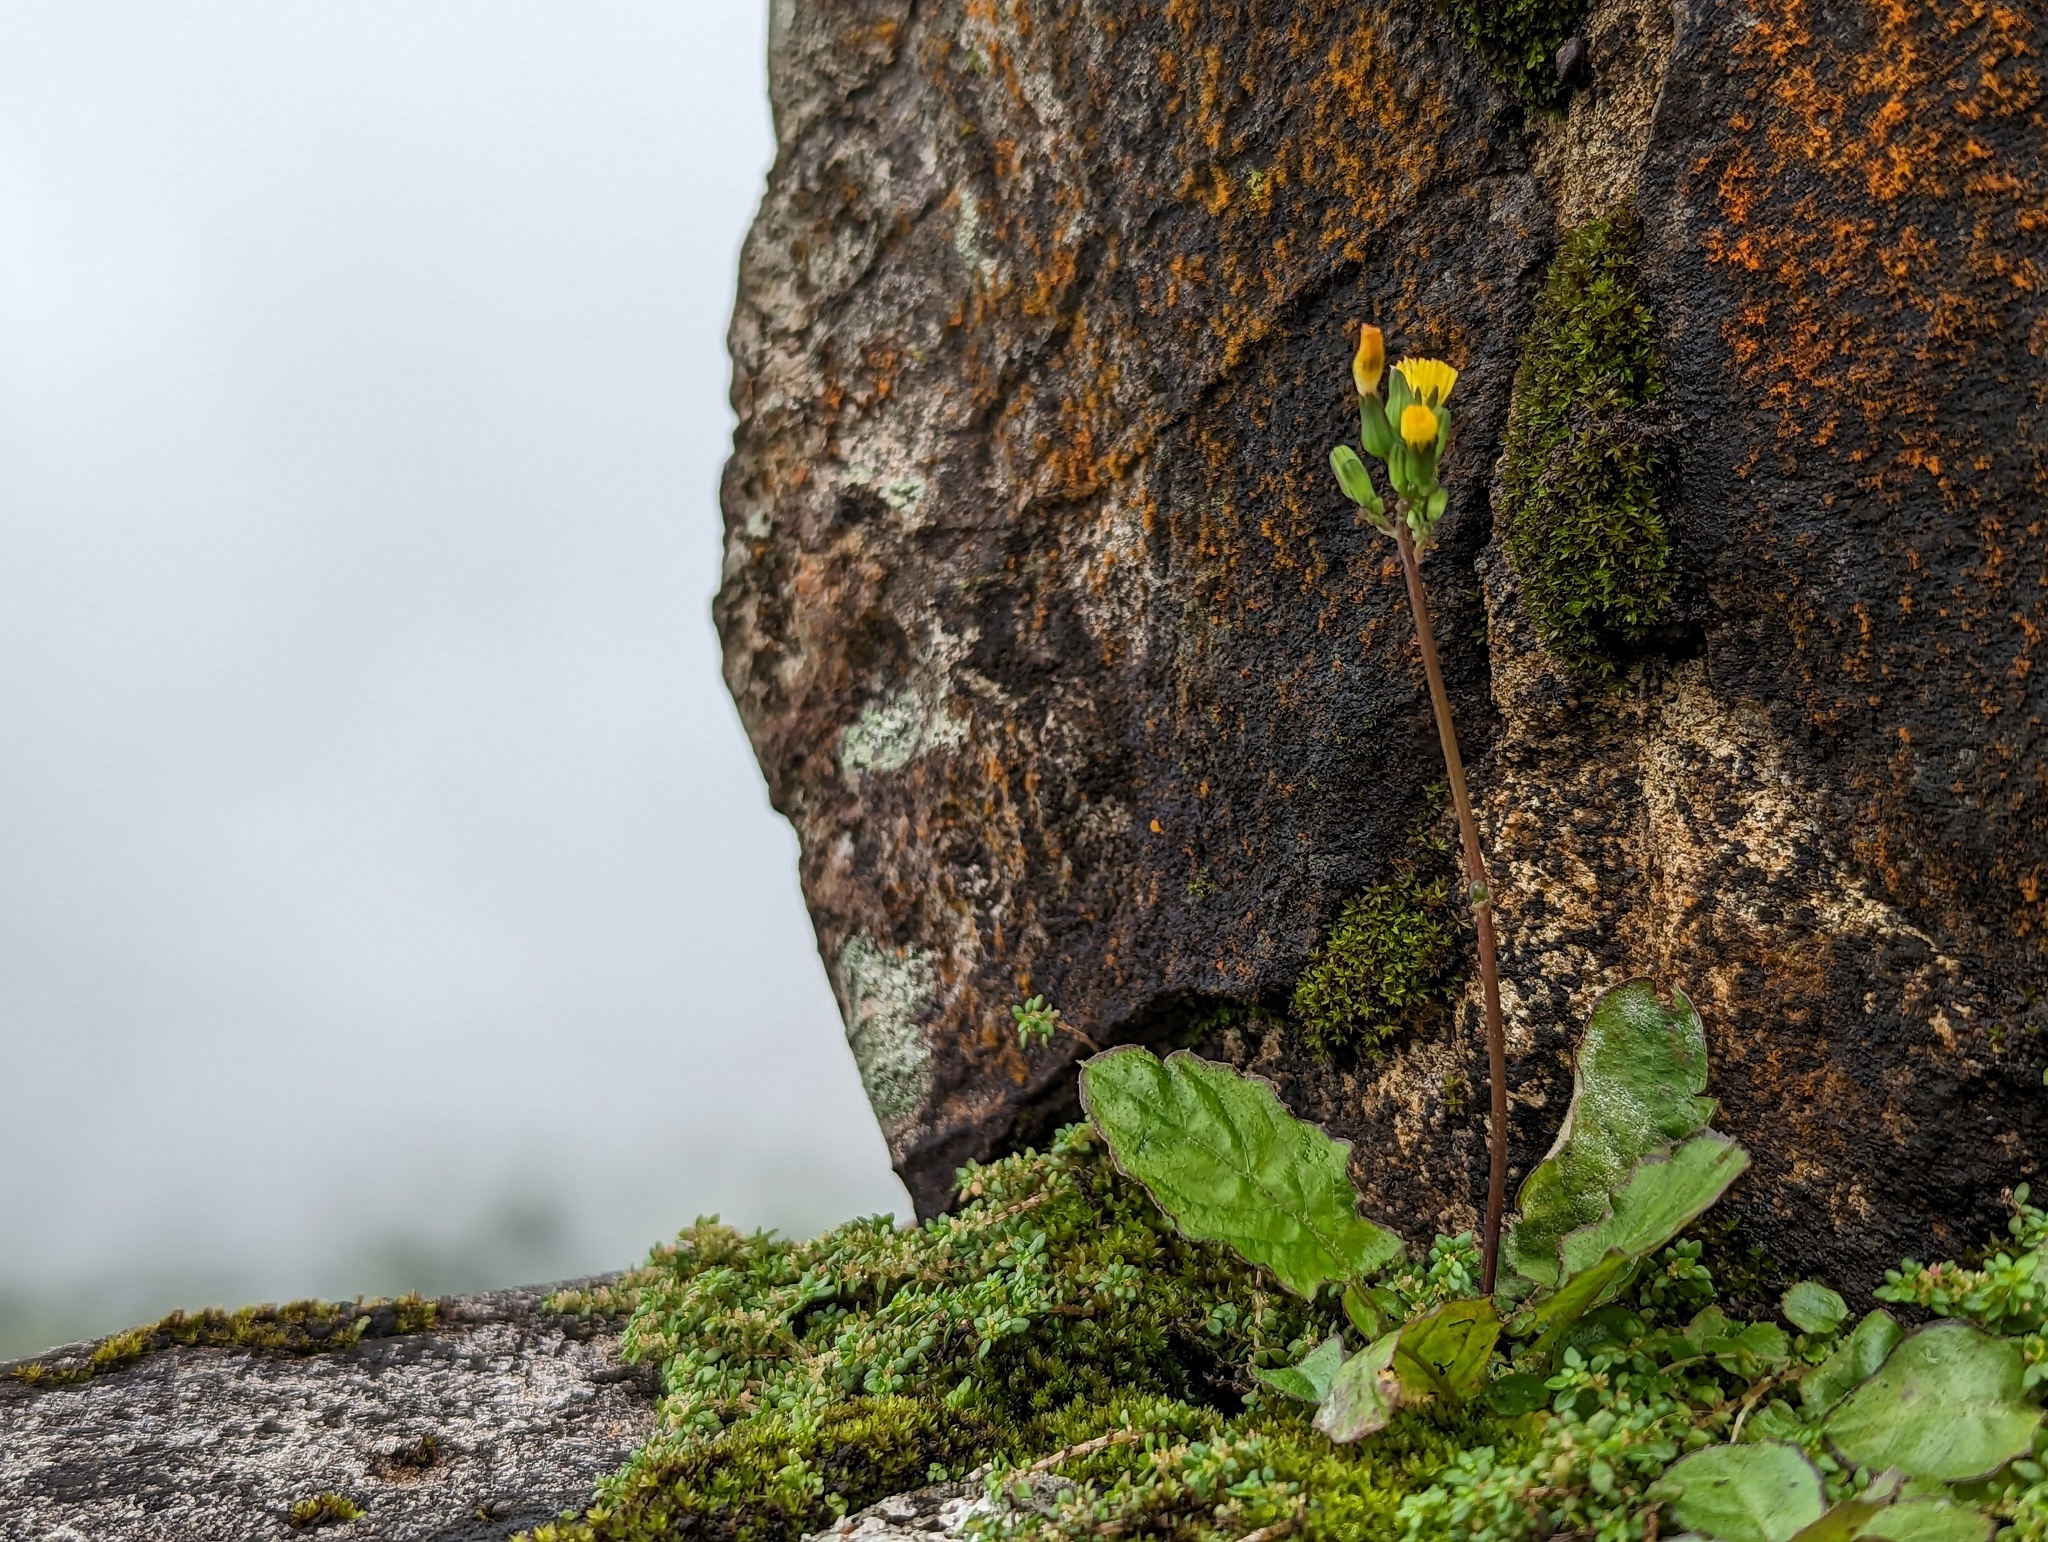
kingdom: Plantae
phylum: Tracheophyta
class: Magnoliopsida
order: Asterales
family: Asteraceae
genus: Youngia
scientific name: Youngia japonica
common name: Oriental false hawksbeard
